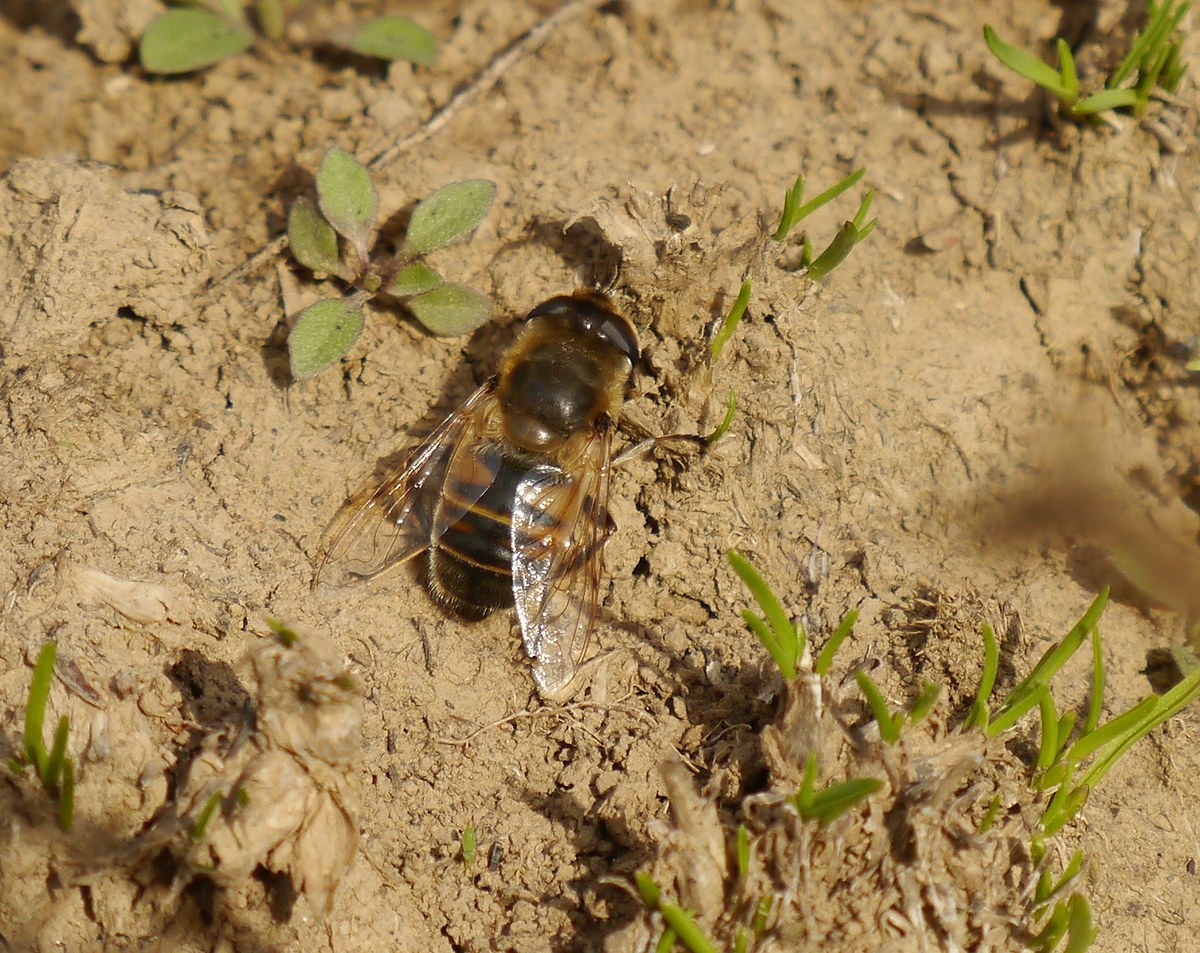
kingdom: Animalia
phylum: Arthropoda
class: Insecta
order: Diptera
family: Syrphidae
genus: Eristalis
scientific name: Eristalis tenax
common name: Drone fly
